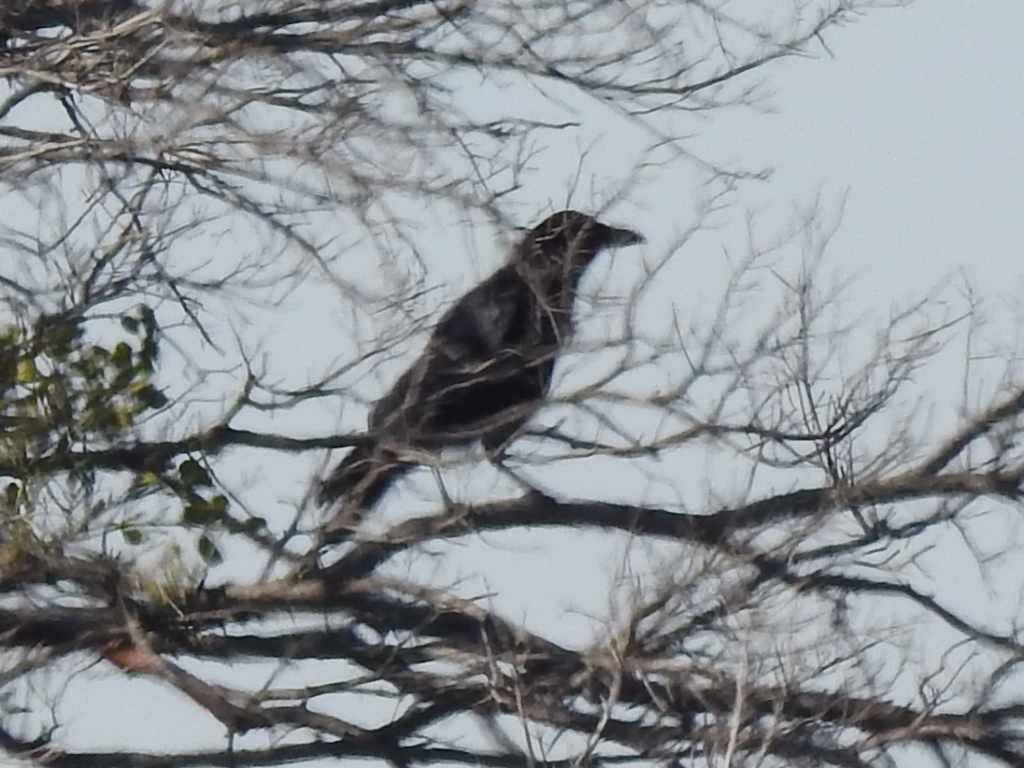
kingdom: Animalia
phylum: Chordata
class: Aves
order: Passeriformes
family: Corvidae
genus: Corvus
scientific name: Corvus brachyrhynchos
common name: American crow
